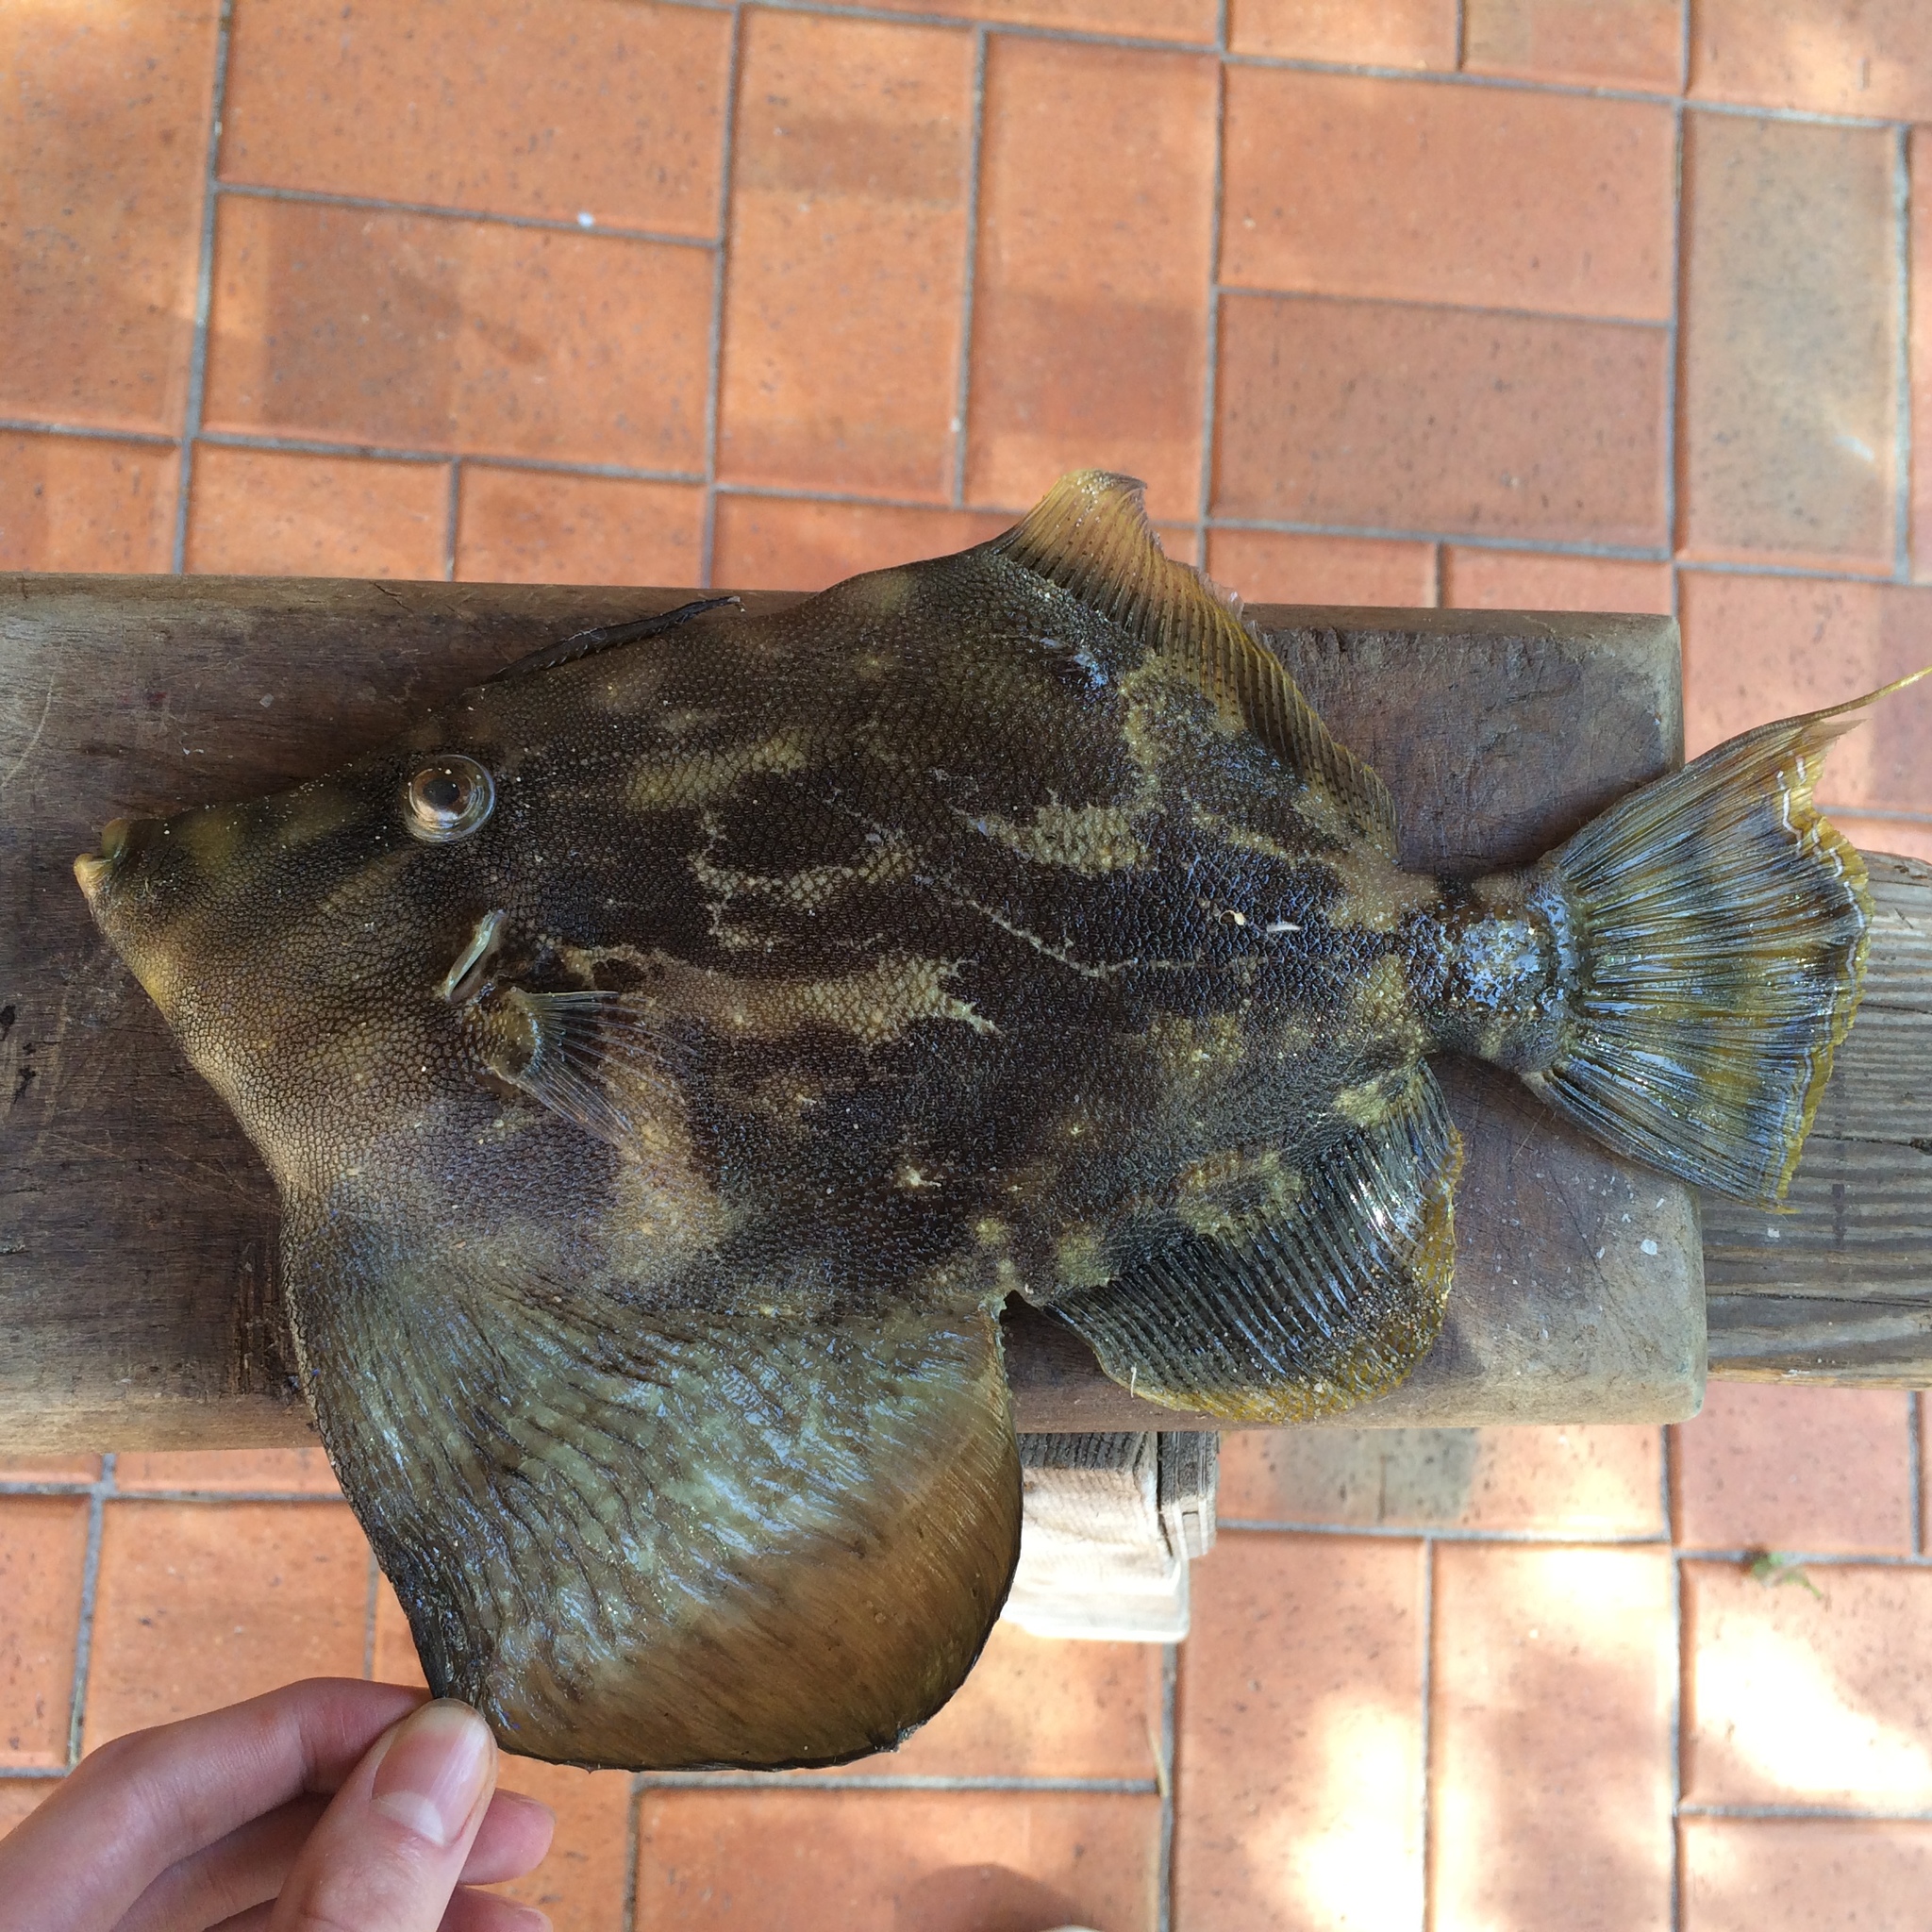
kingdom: Animalia
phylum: Chordata
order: Tetraodontiformes
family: Monacanthidae
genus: Monacanthus
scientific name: Monacanthus chinensis
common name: Centreboard leatherjacket
